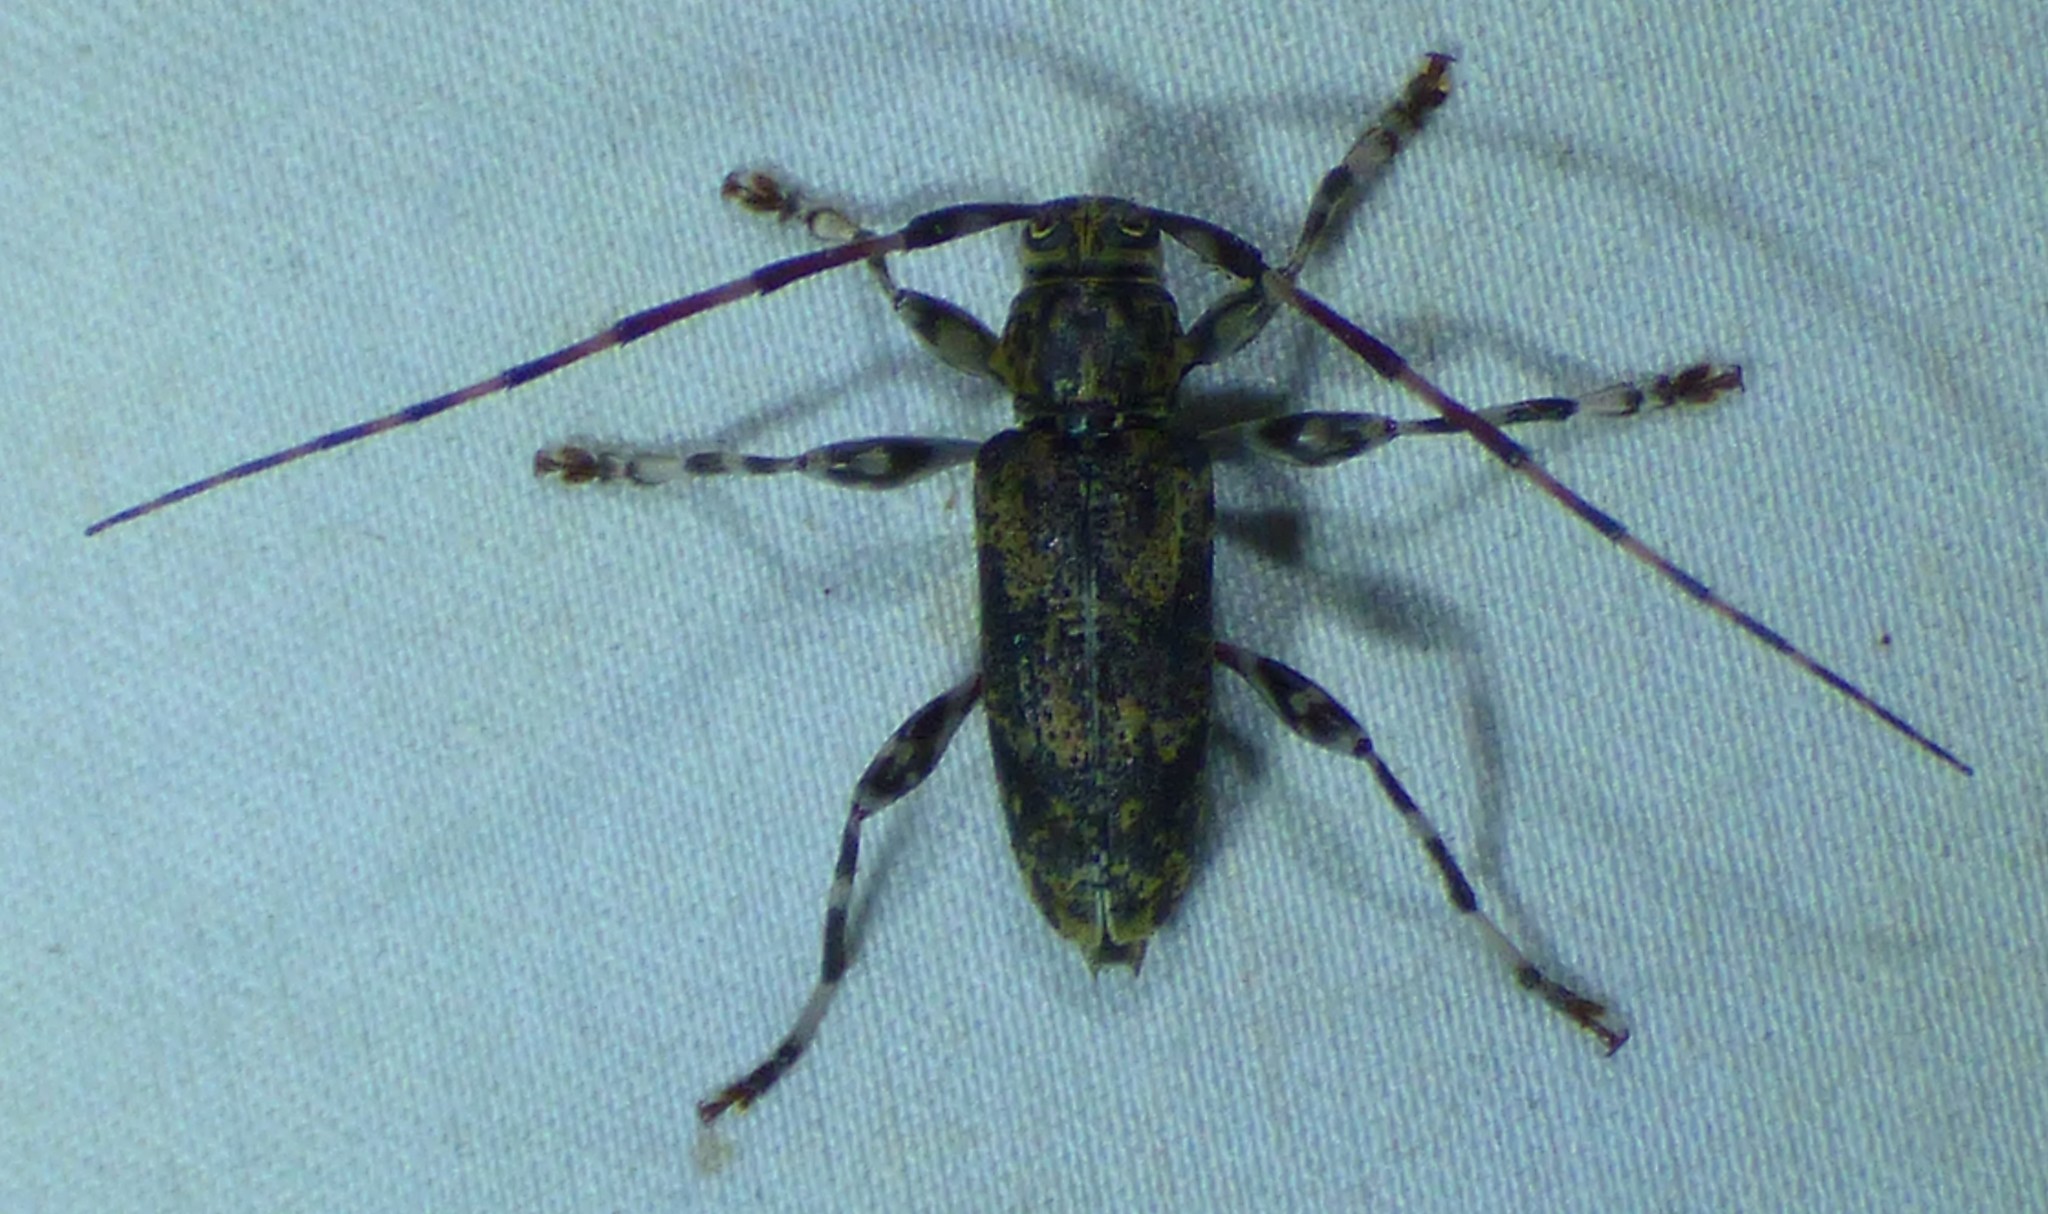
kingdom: Animalia
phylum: Arthropoda
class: Insecta
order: Coleoptera
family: Cerambycidae
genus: Graphisurus
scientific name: Graphisurus fasciatus
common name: Banded graphisurus
